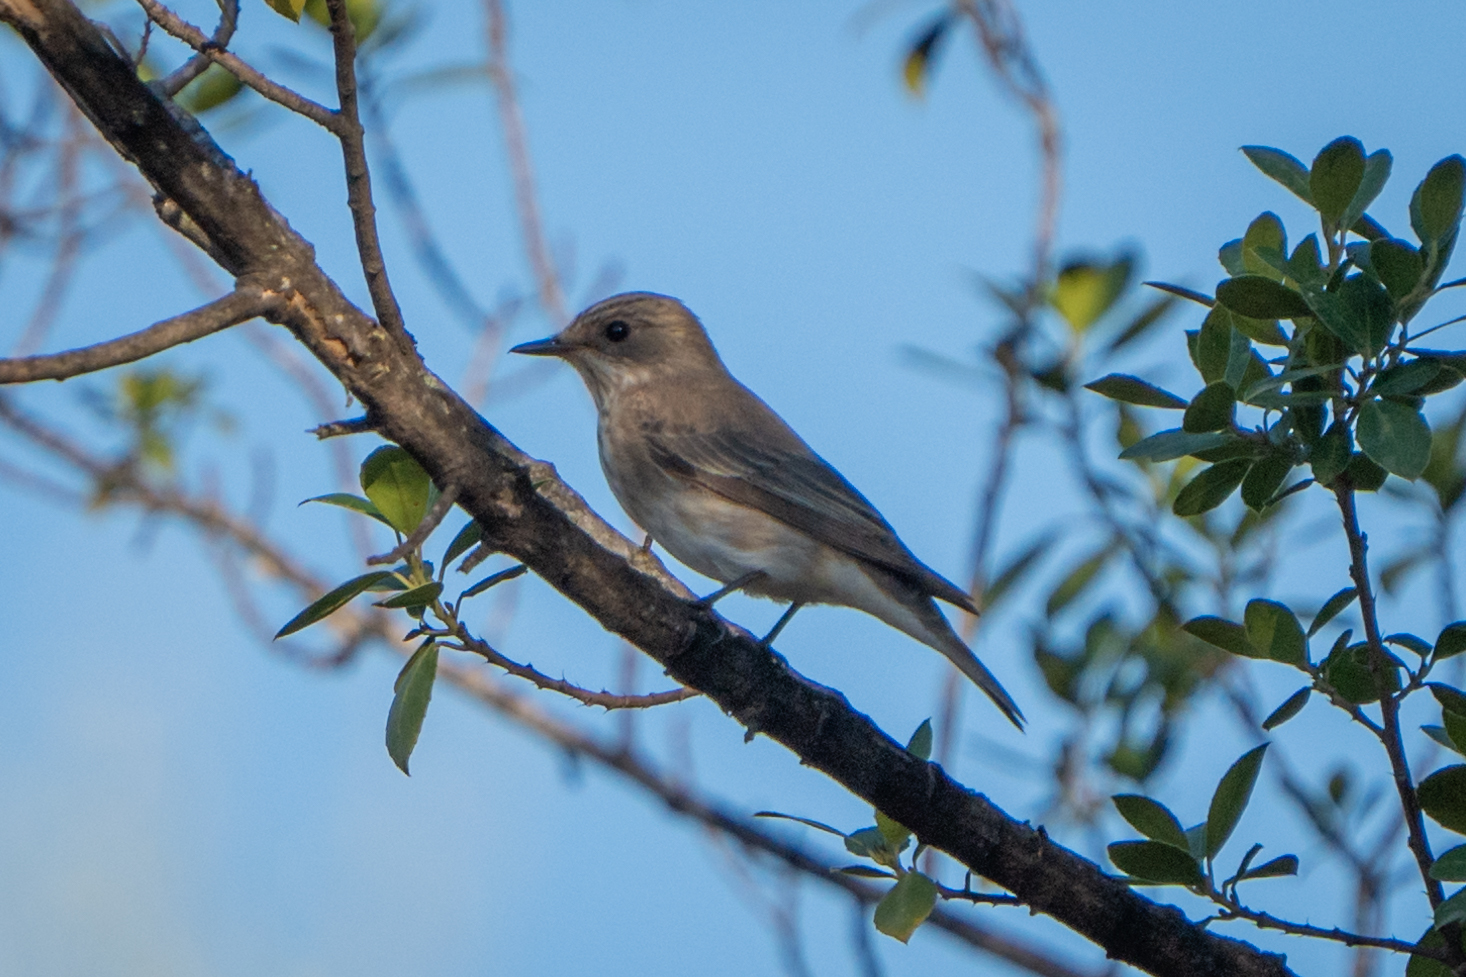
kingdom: Animalia
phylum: Chordata
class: Aves
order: Passeriformes
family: Muscicapidae
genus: Muscicapa
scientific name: Muscicapa striata
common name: Spotted flycatcher
